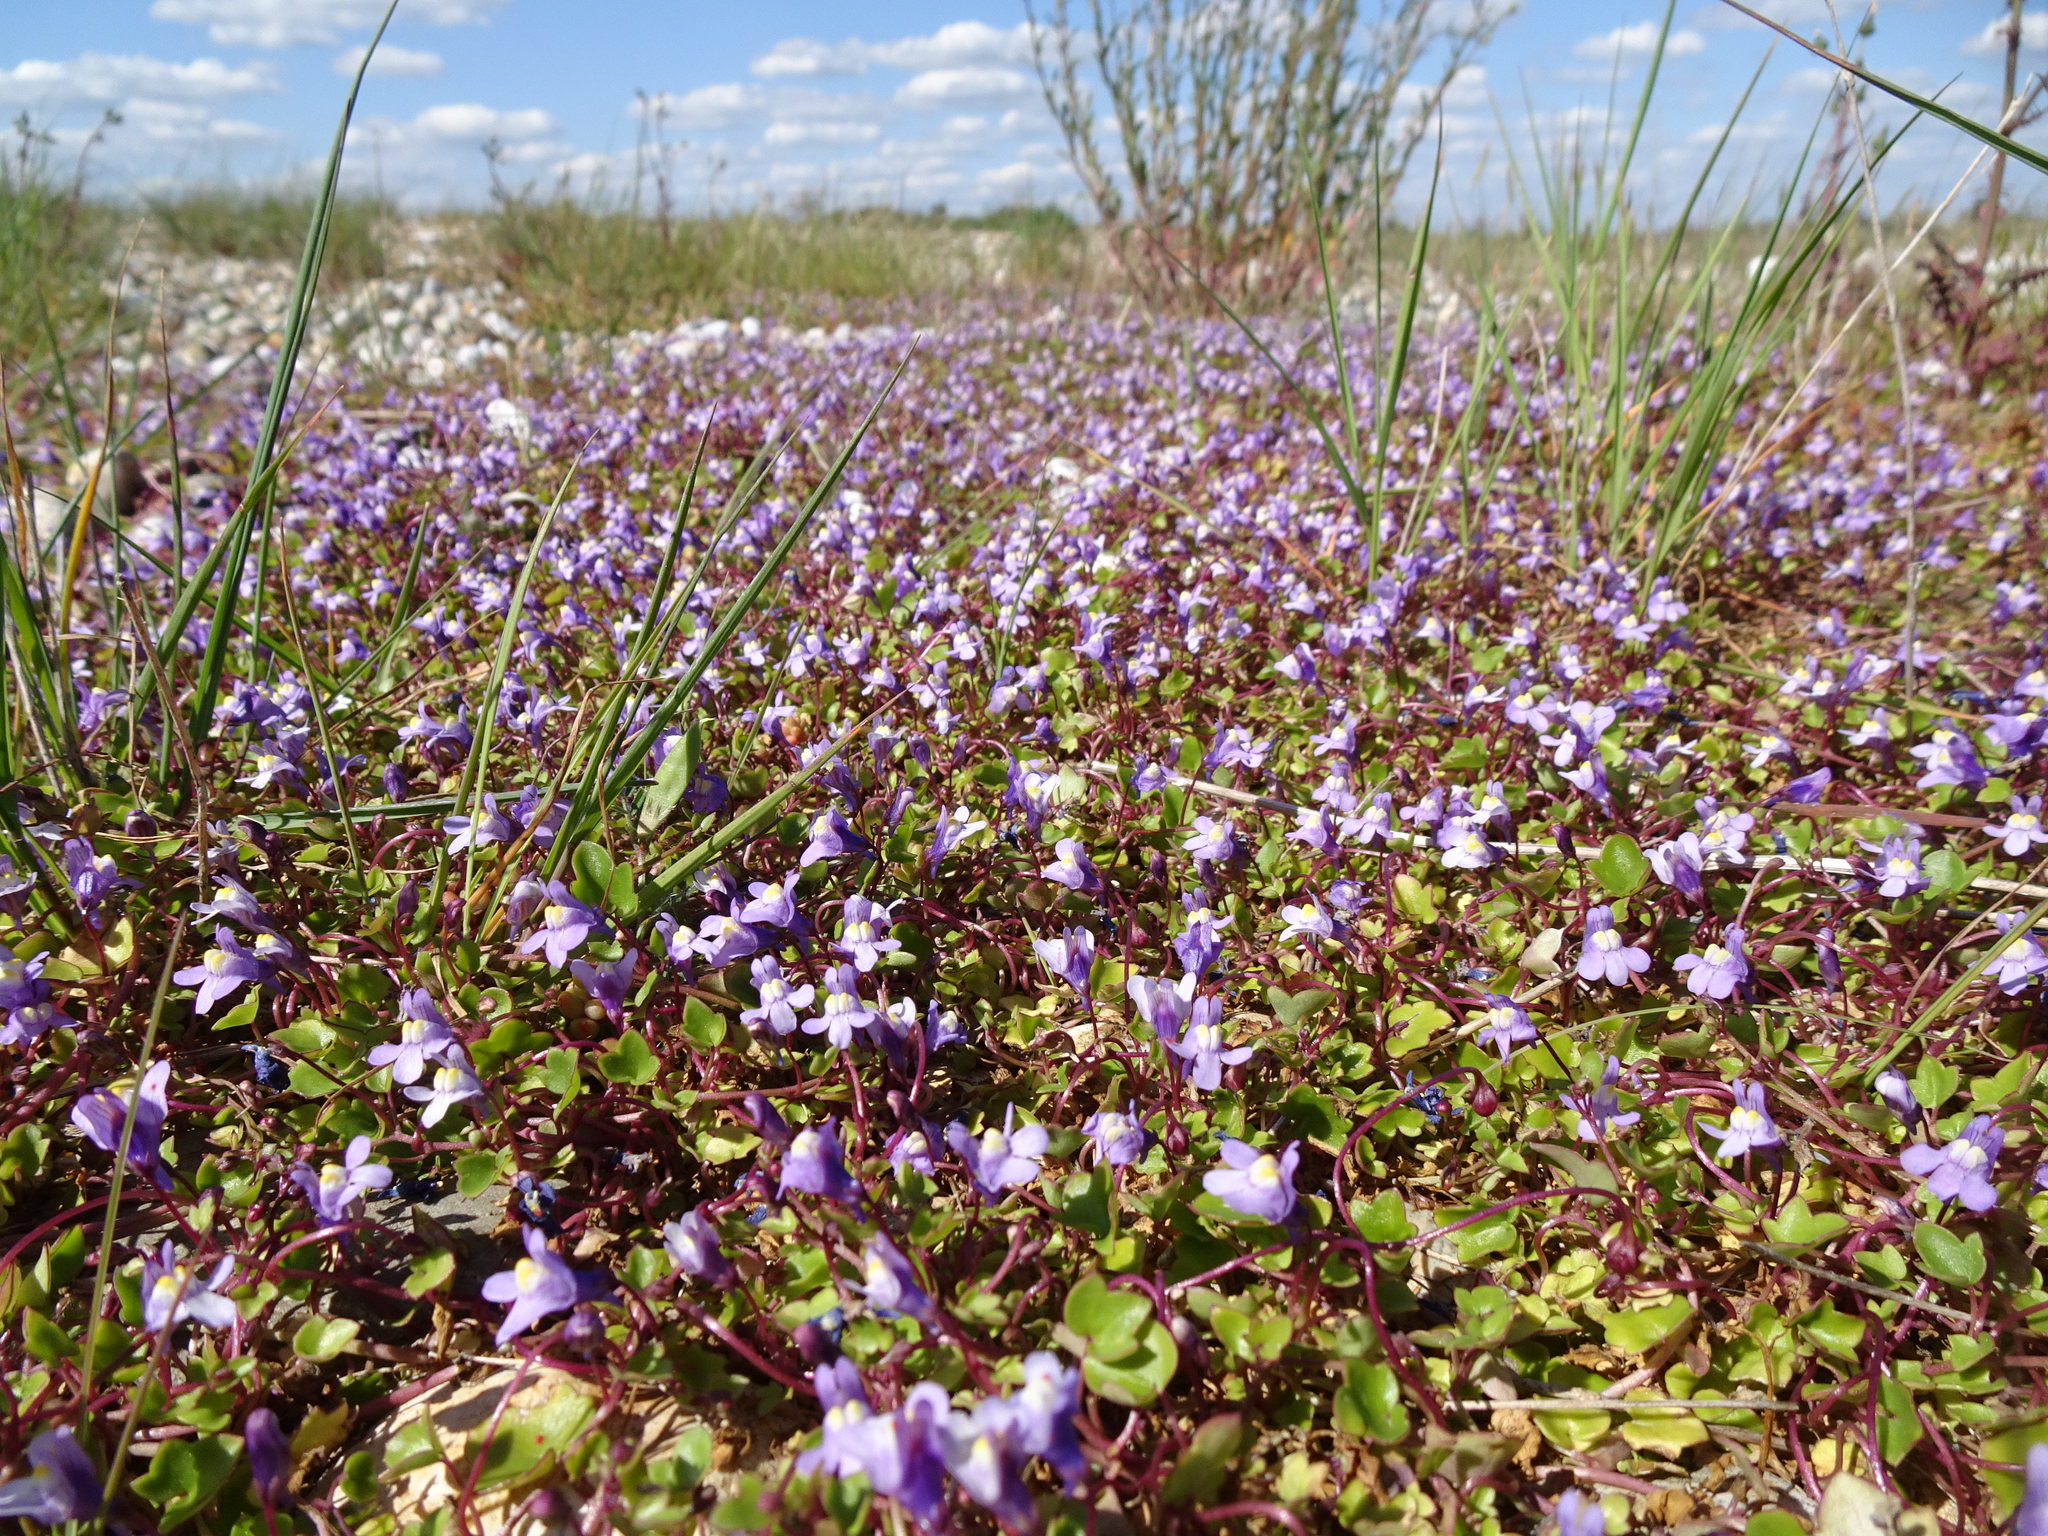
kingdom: Plantae
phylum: Tracheophyta
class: Magnoliopsida
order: Lamiales
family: Plantaginaceae
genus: Cymbalaria
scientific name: Cymbalaria muralis
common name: Ivy-leaved toadflax
